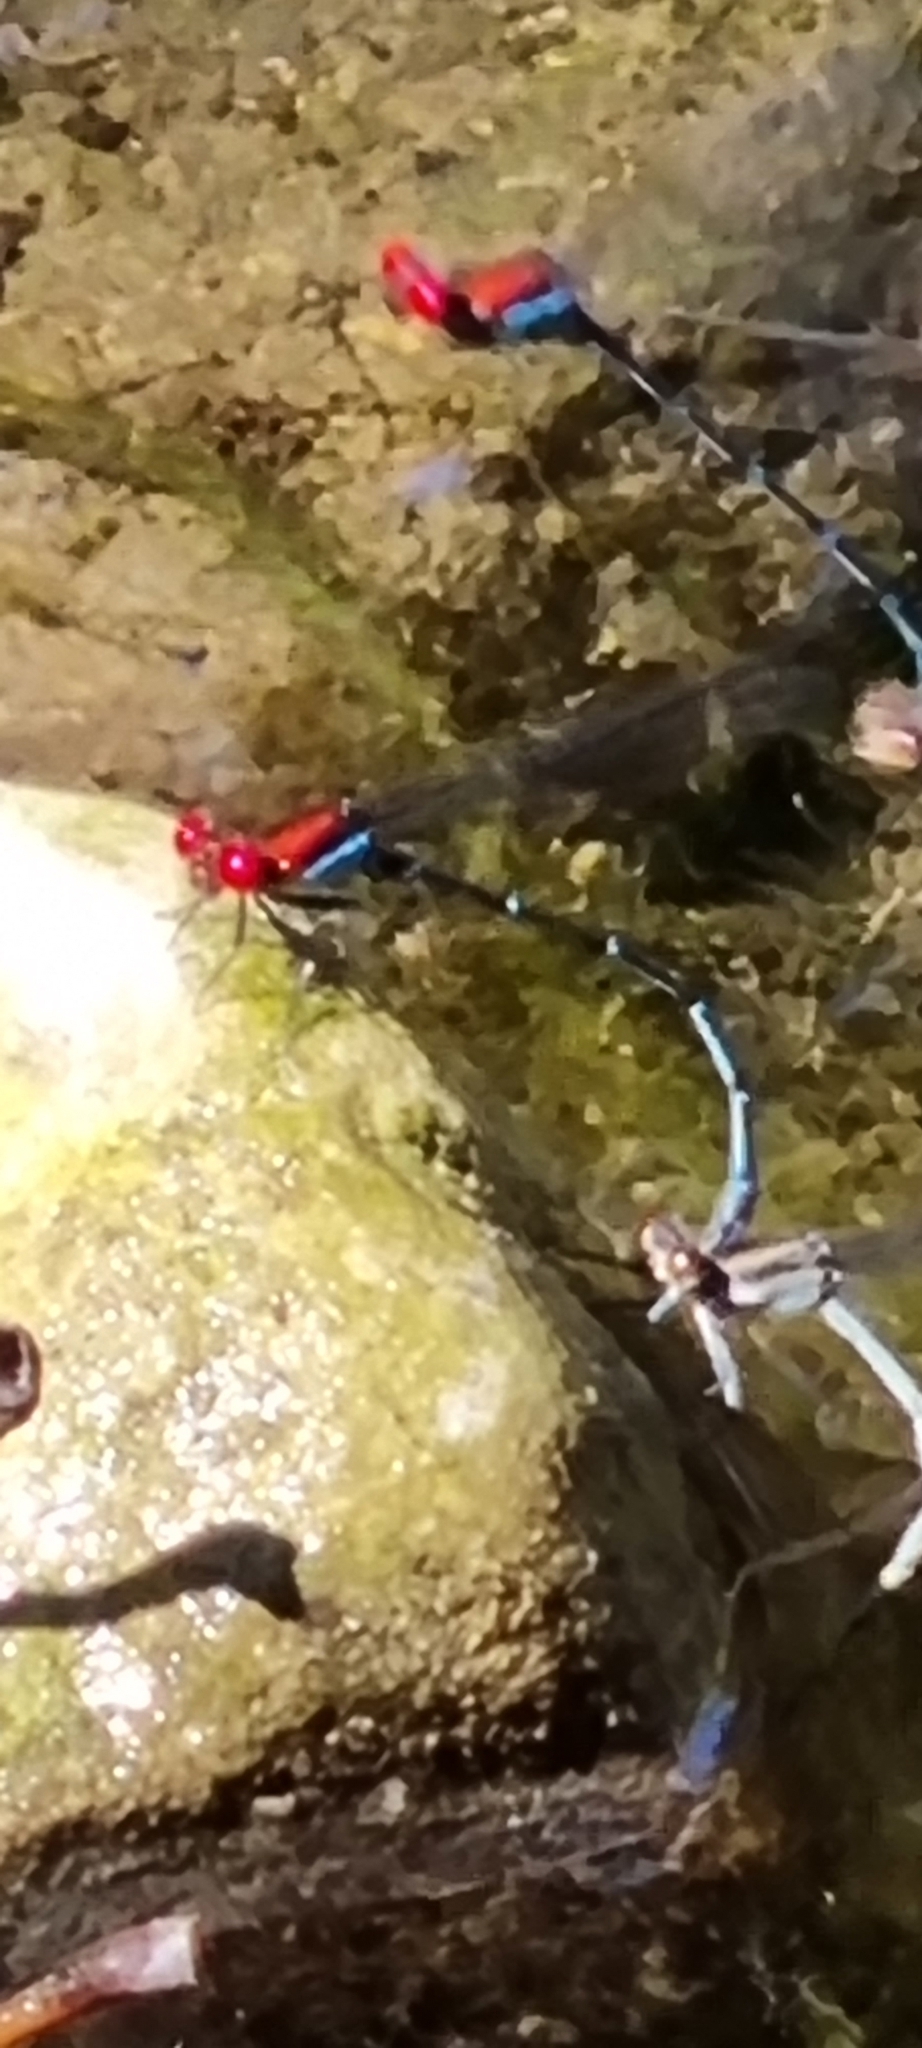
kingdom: Animalia
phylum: Arthropoda
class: Insecta
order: Odonata
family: Coenagrionidae
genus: Argia
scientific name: Argia cuprea
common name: Coppery dancer
